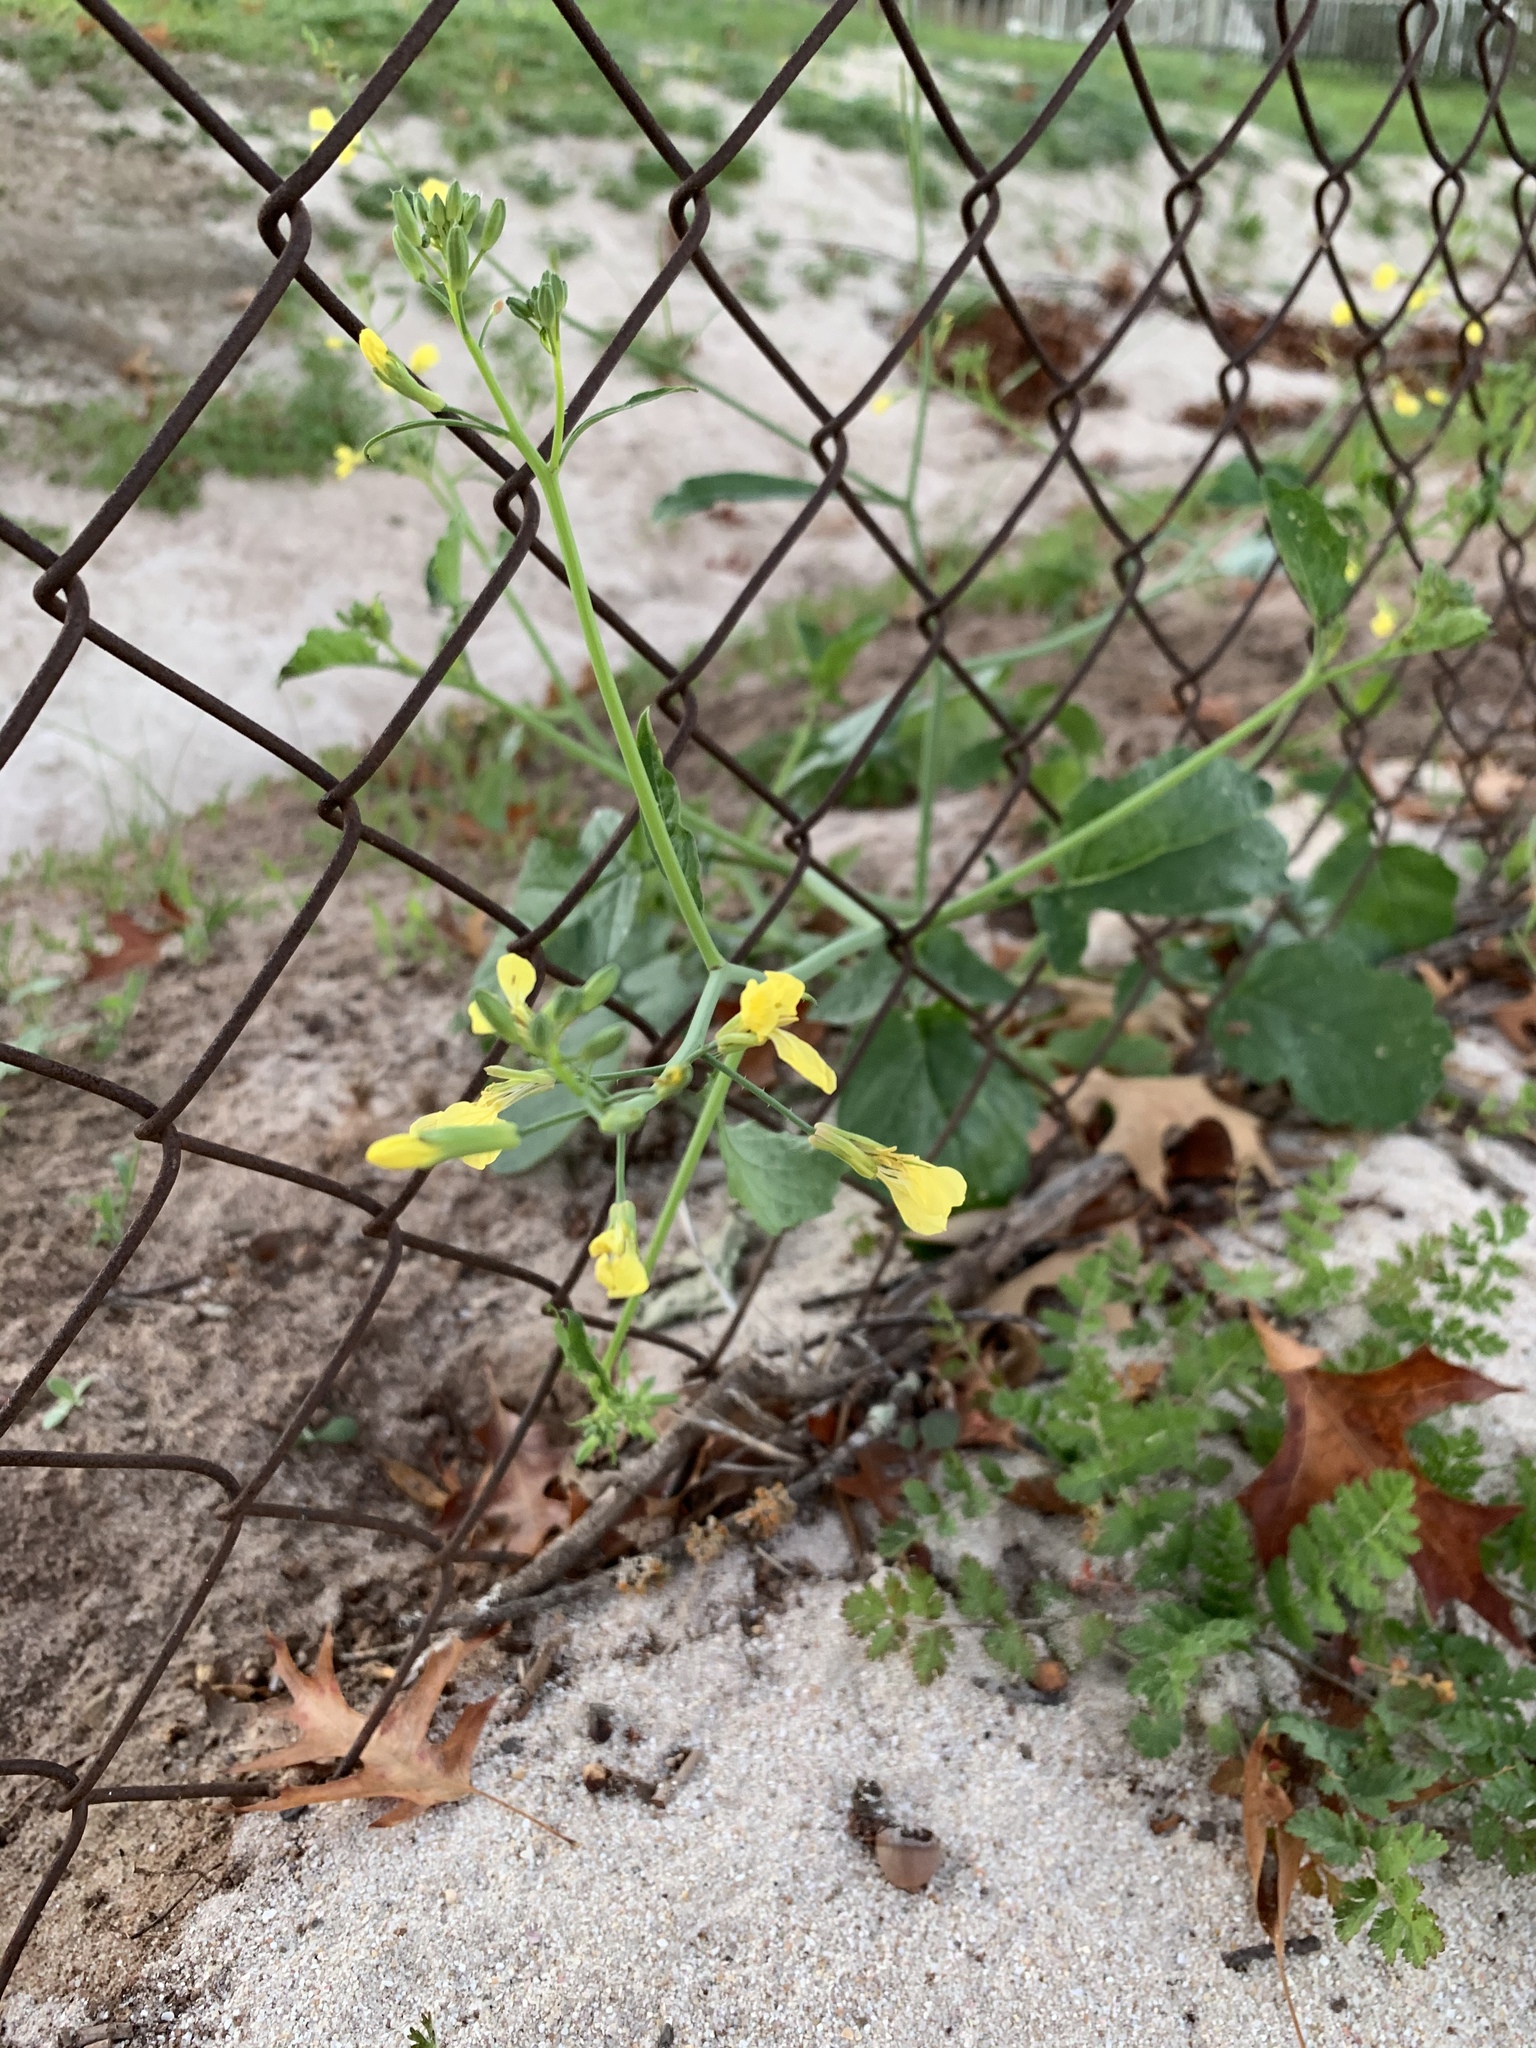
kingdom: Plantae
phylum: Tracheophyta
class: Magnoliopsida
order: Brassicales
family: Brassicaceae
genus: Raphanus
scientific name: Raphanus raphanistrum
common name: Wild radish
